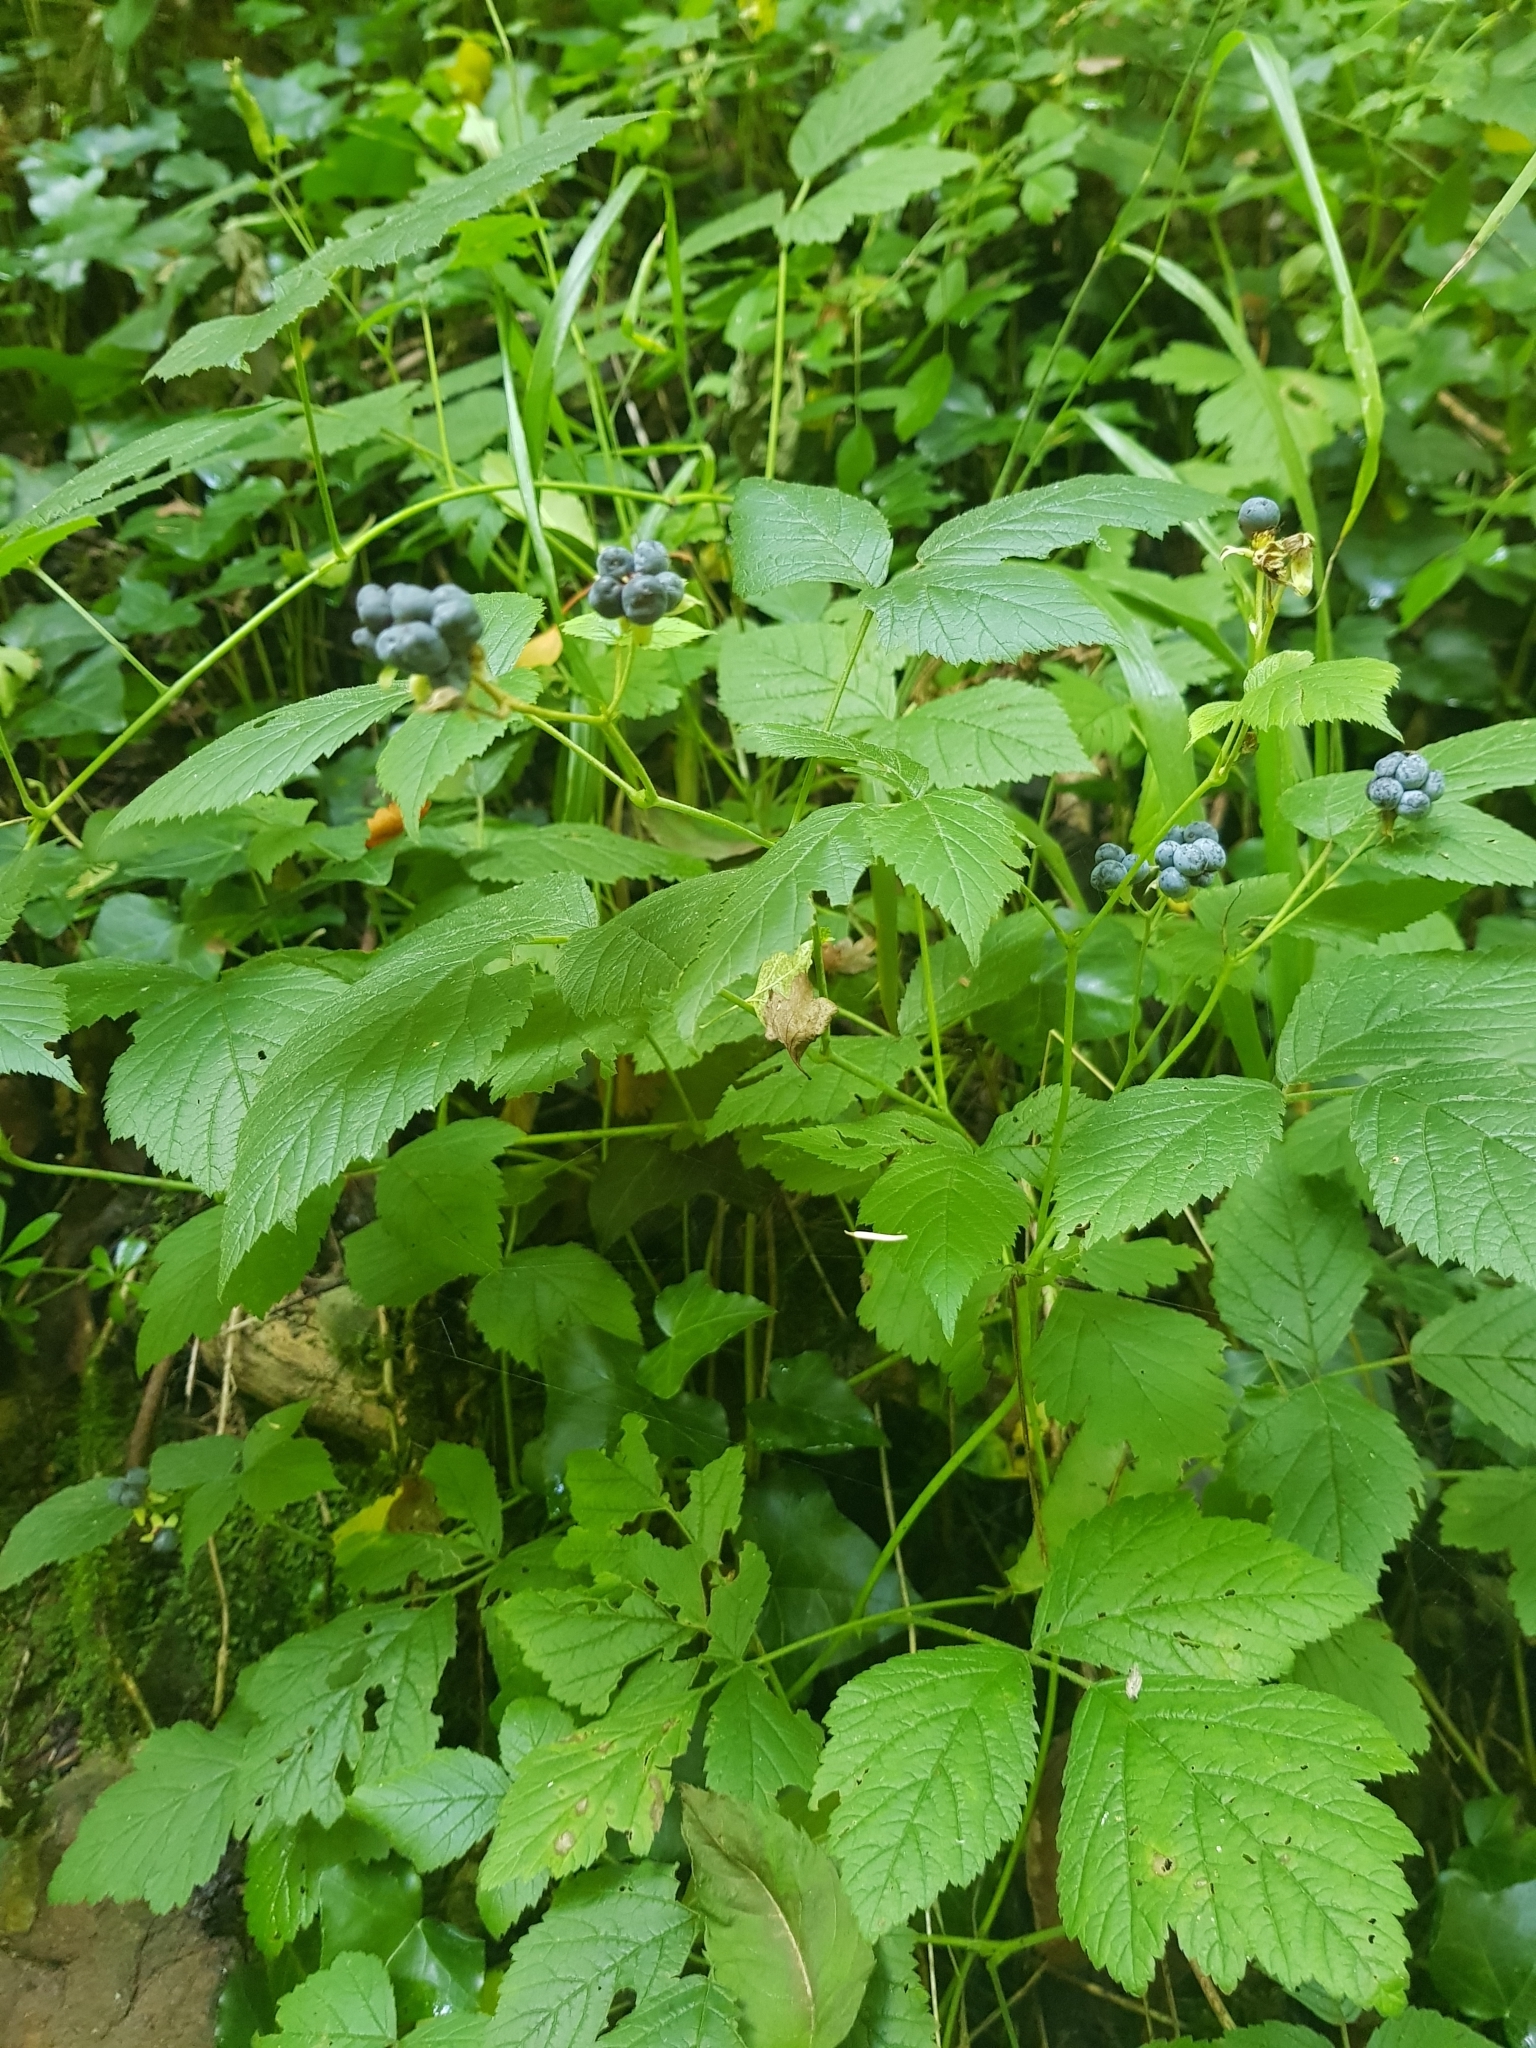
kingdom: Plantae
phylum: Tracheophyta
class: Magnoliopsida
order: Rosales
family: Rosaceae
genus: Rubus
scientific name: Rubus caesius
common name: Dewberry
